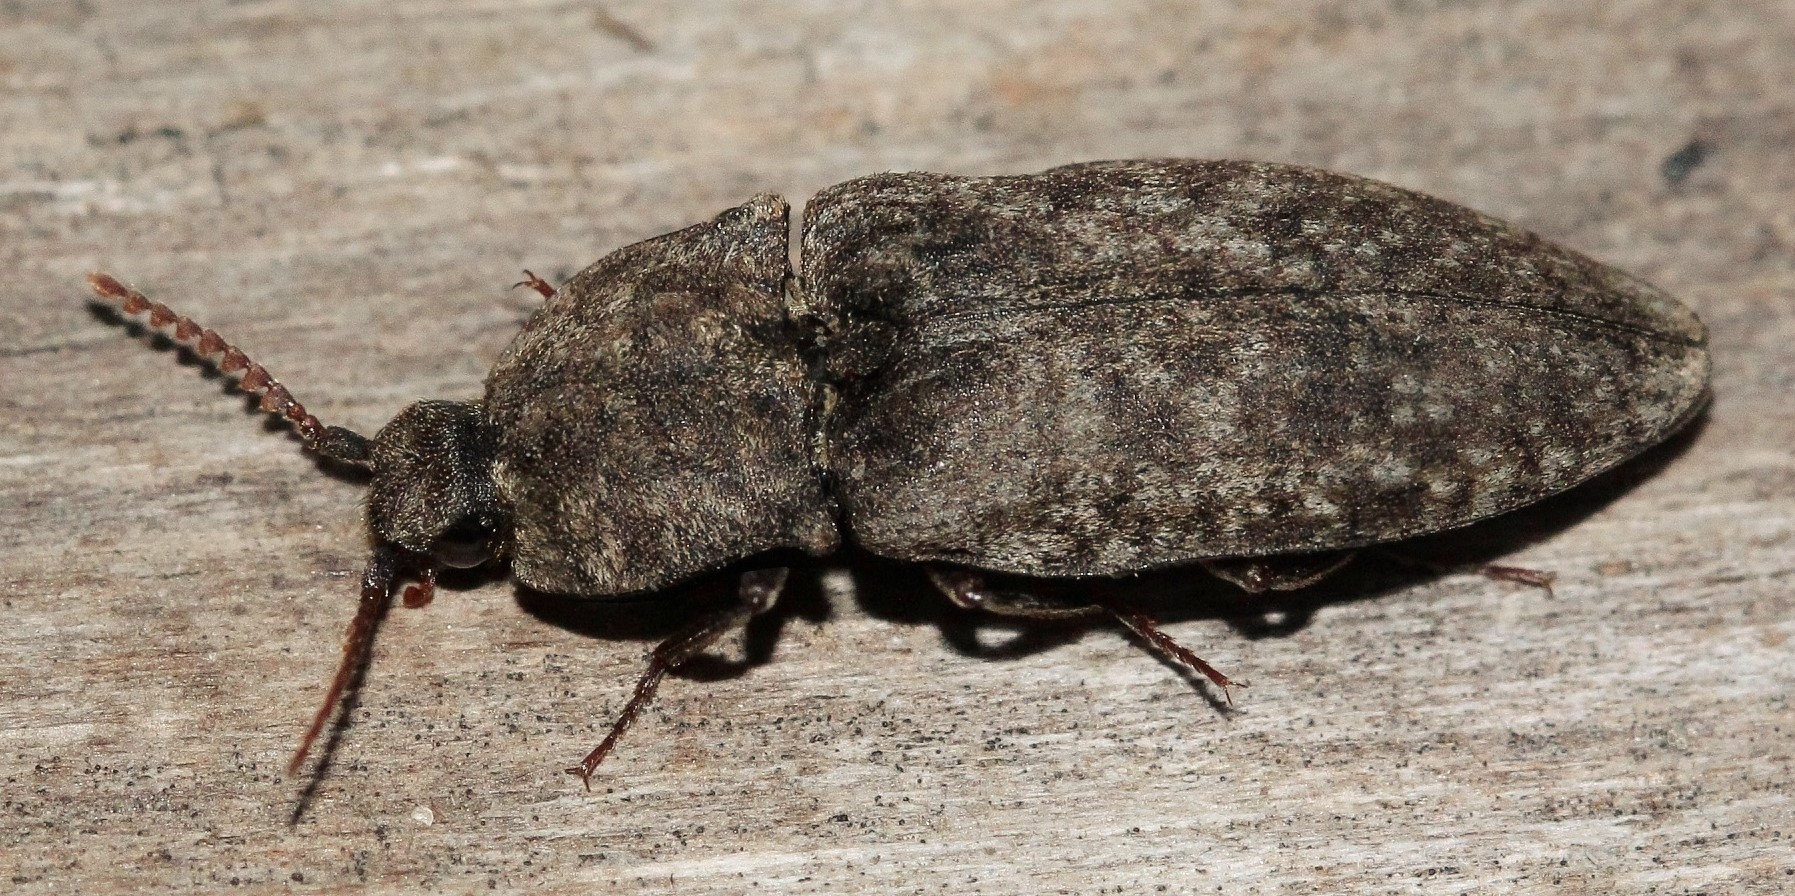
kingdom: Animalia
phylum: Arthropoda
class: Insecta
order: Coleoptera
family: Elateridae
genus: Agrypnus
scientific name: Agrypnus murinus
